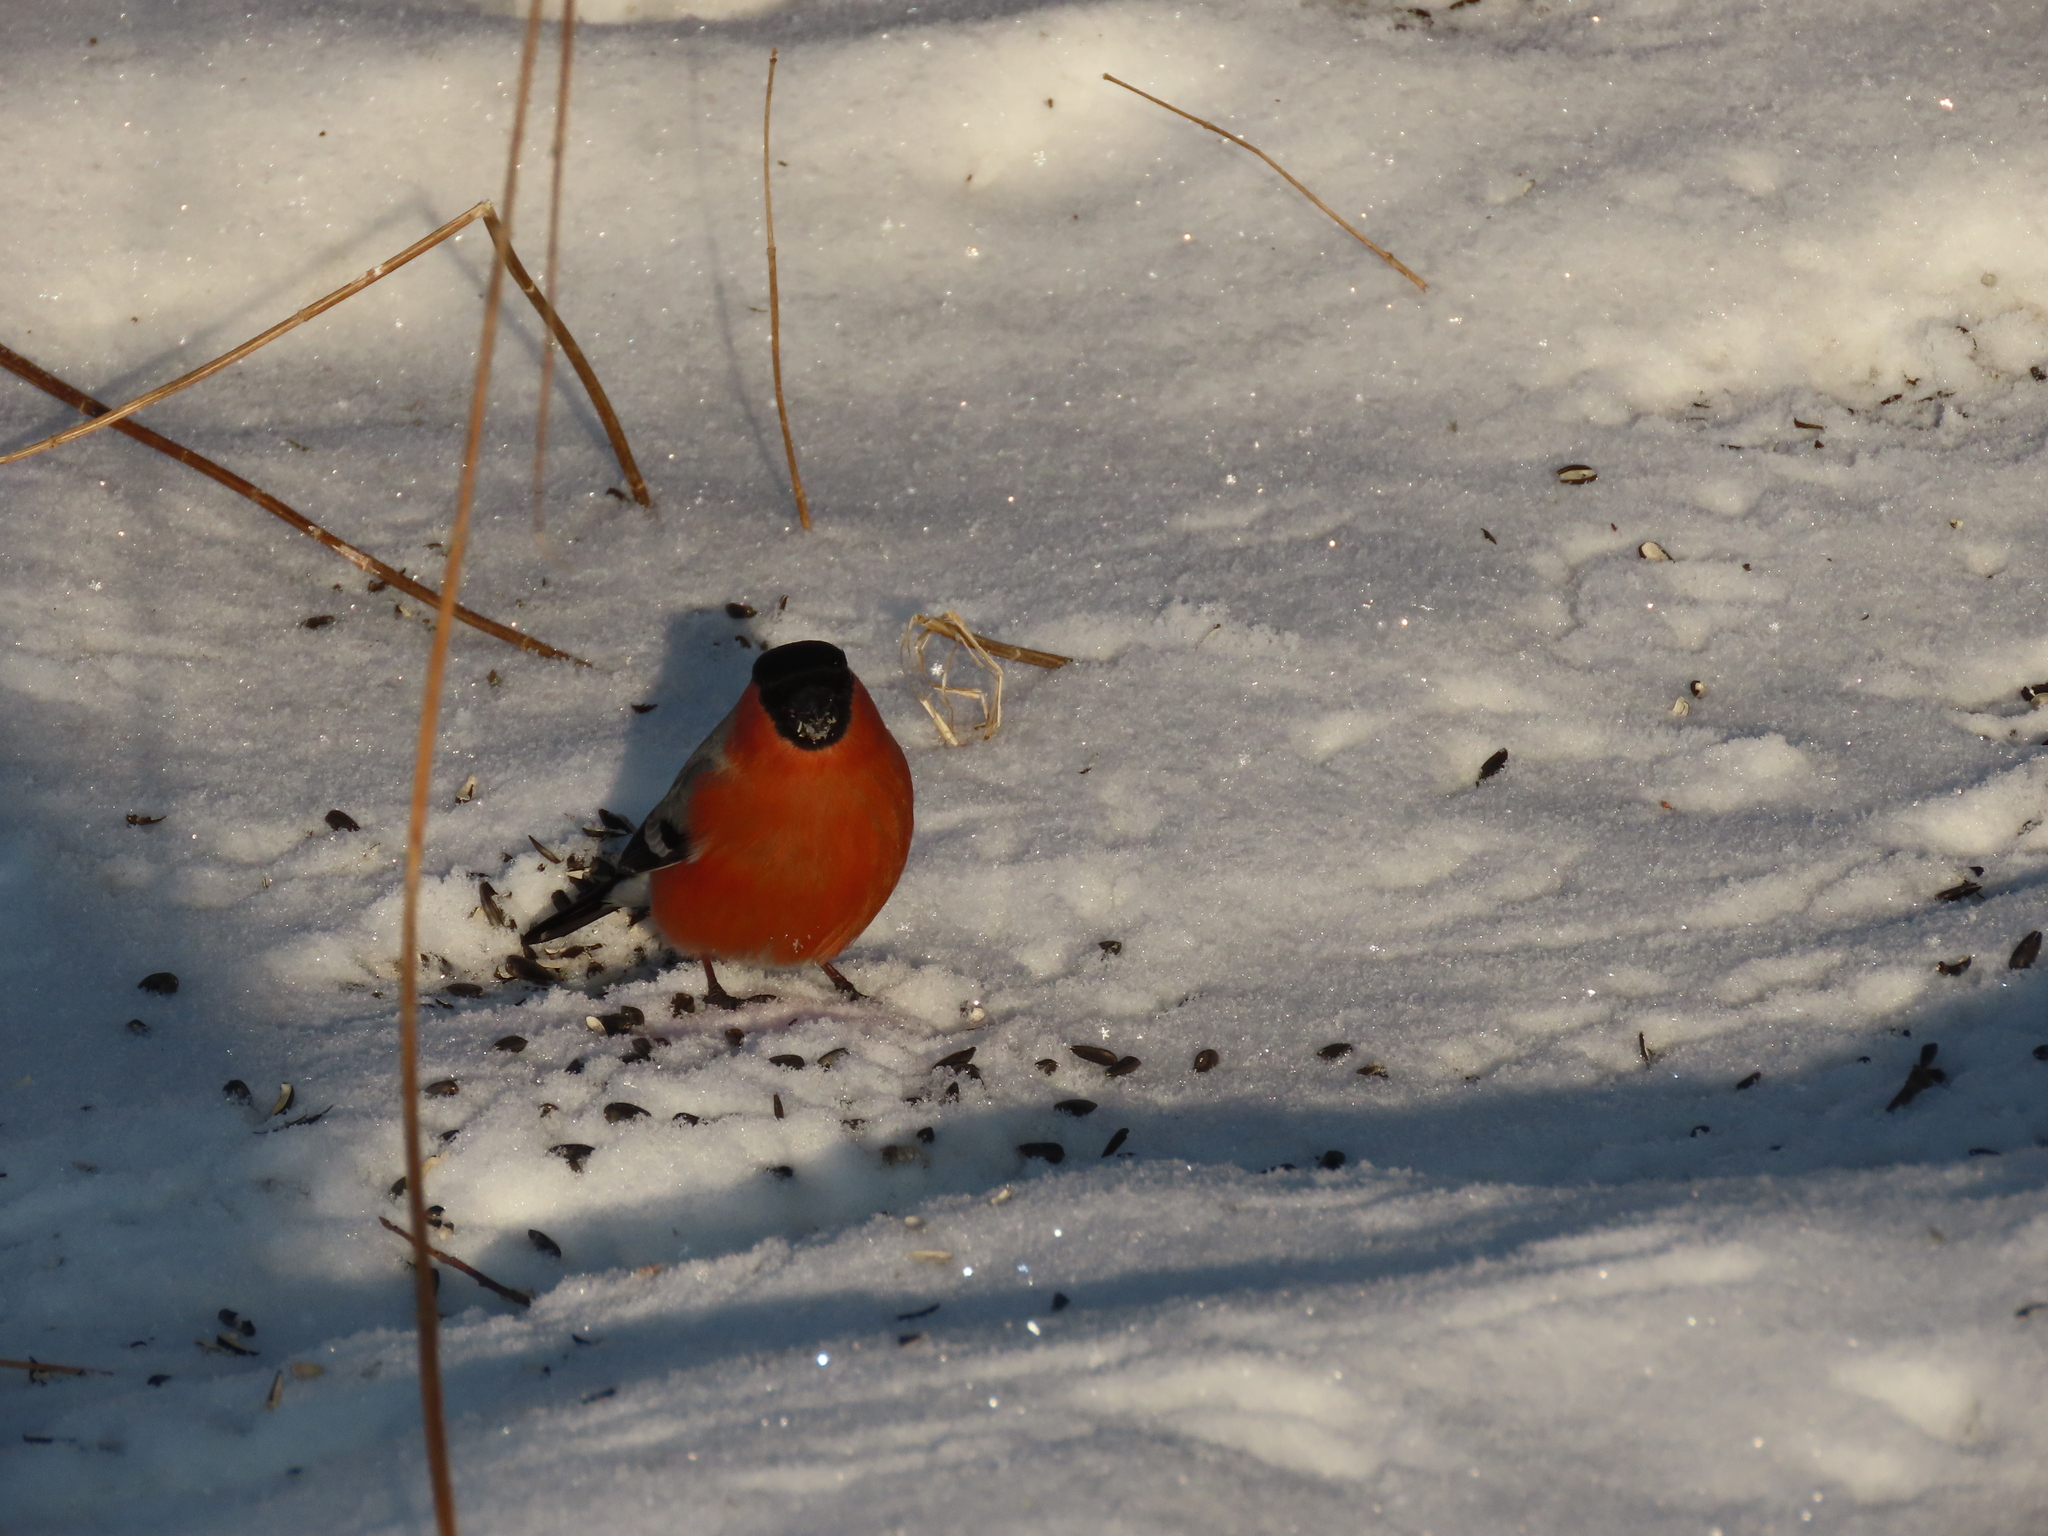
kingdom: Animalia
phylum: Chordata
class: Aves
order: Passeriformes
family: Fringillidae
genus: Pyrrhula
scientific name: Pyrrhula pyrrhula
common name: Eurasian bullfinch
